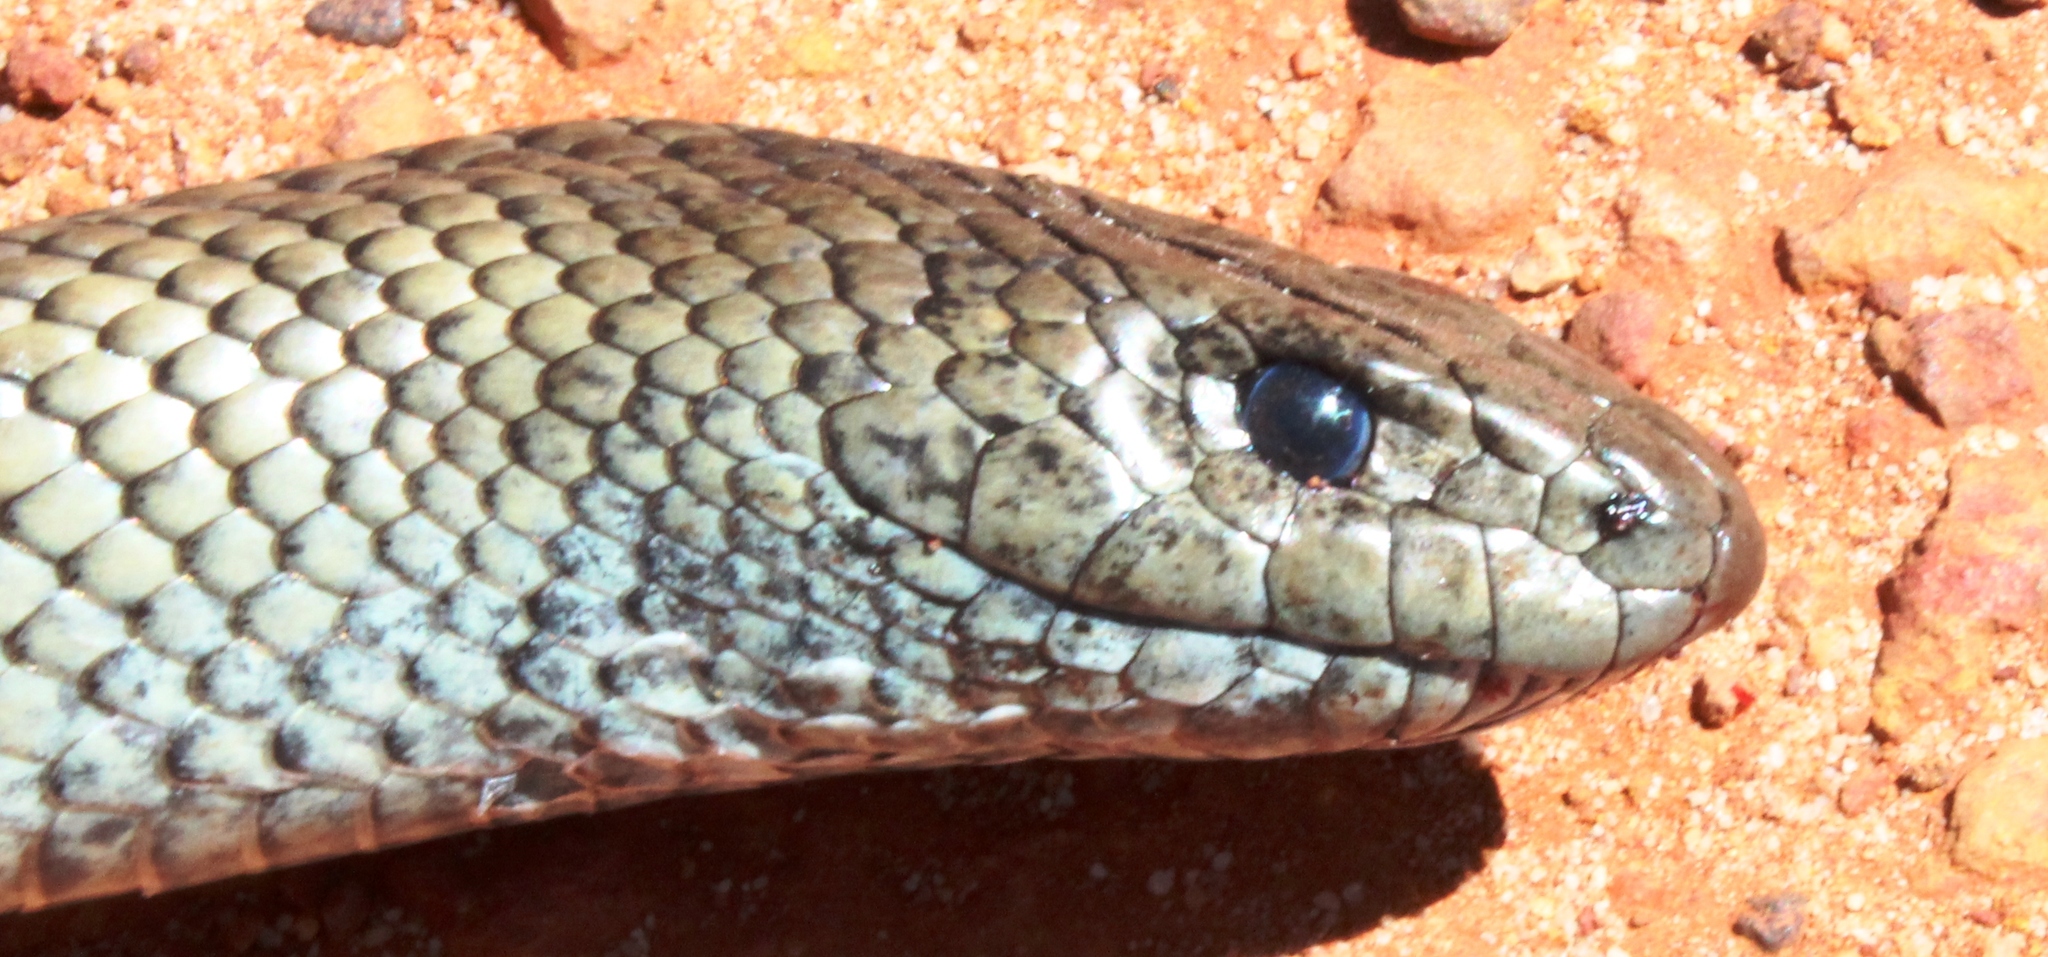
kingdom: Animalia
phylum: Chordata
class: Squamata
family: Pseudaspididae
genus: Pseudaspis
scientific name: Pseudaspis cana
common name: Mole snake
